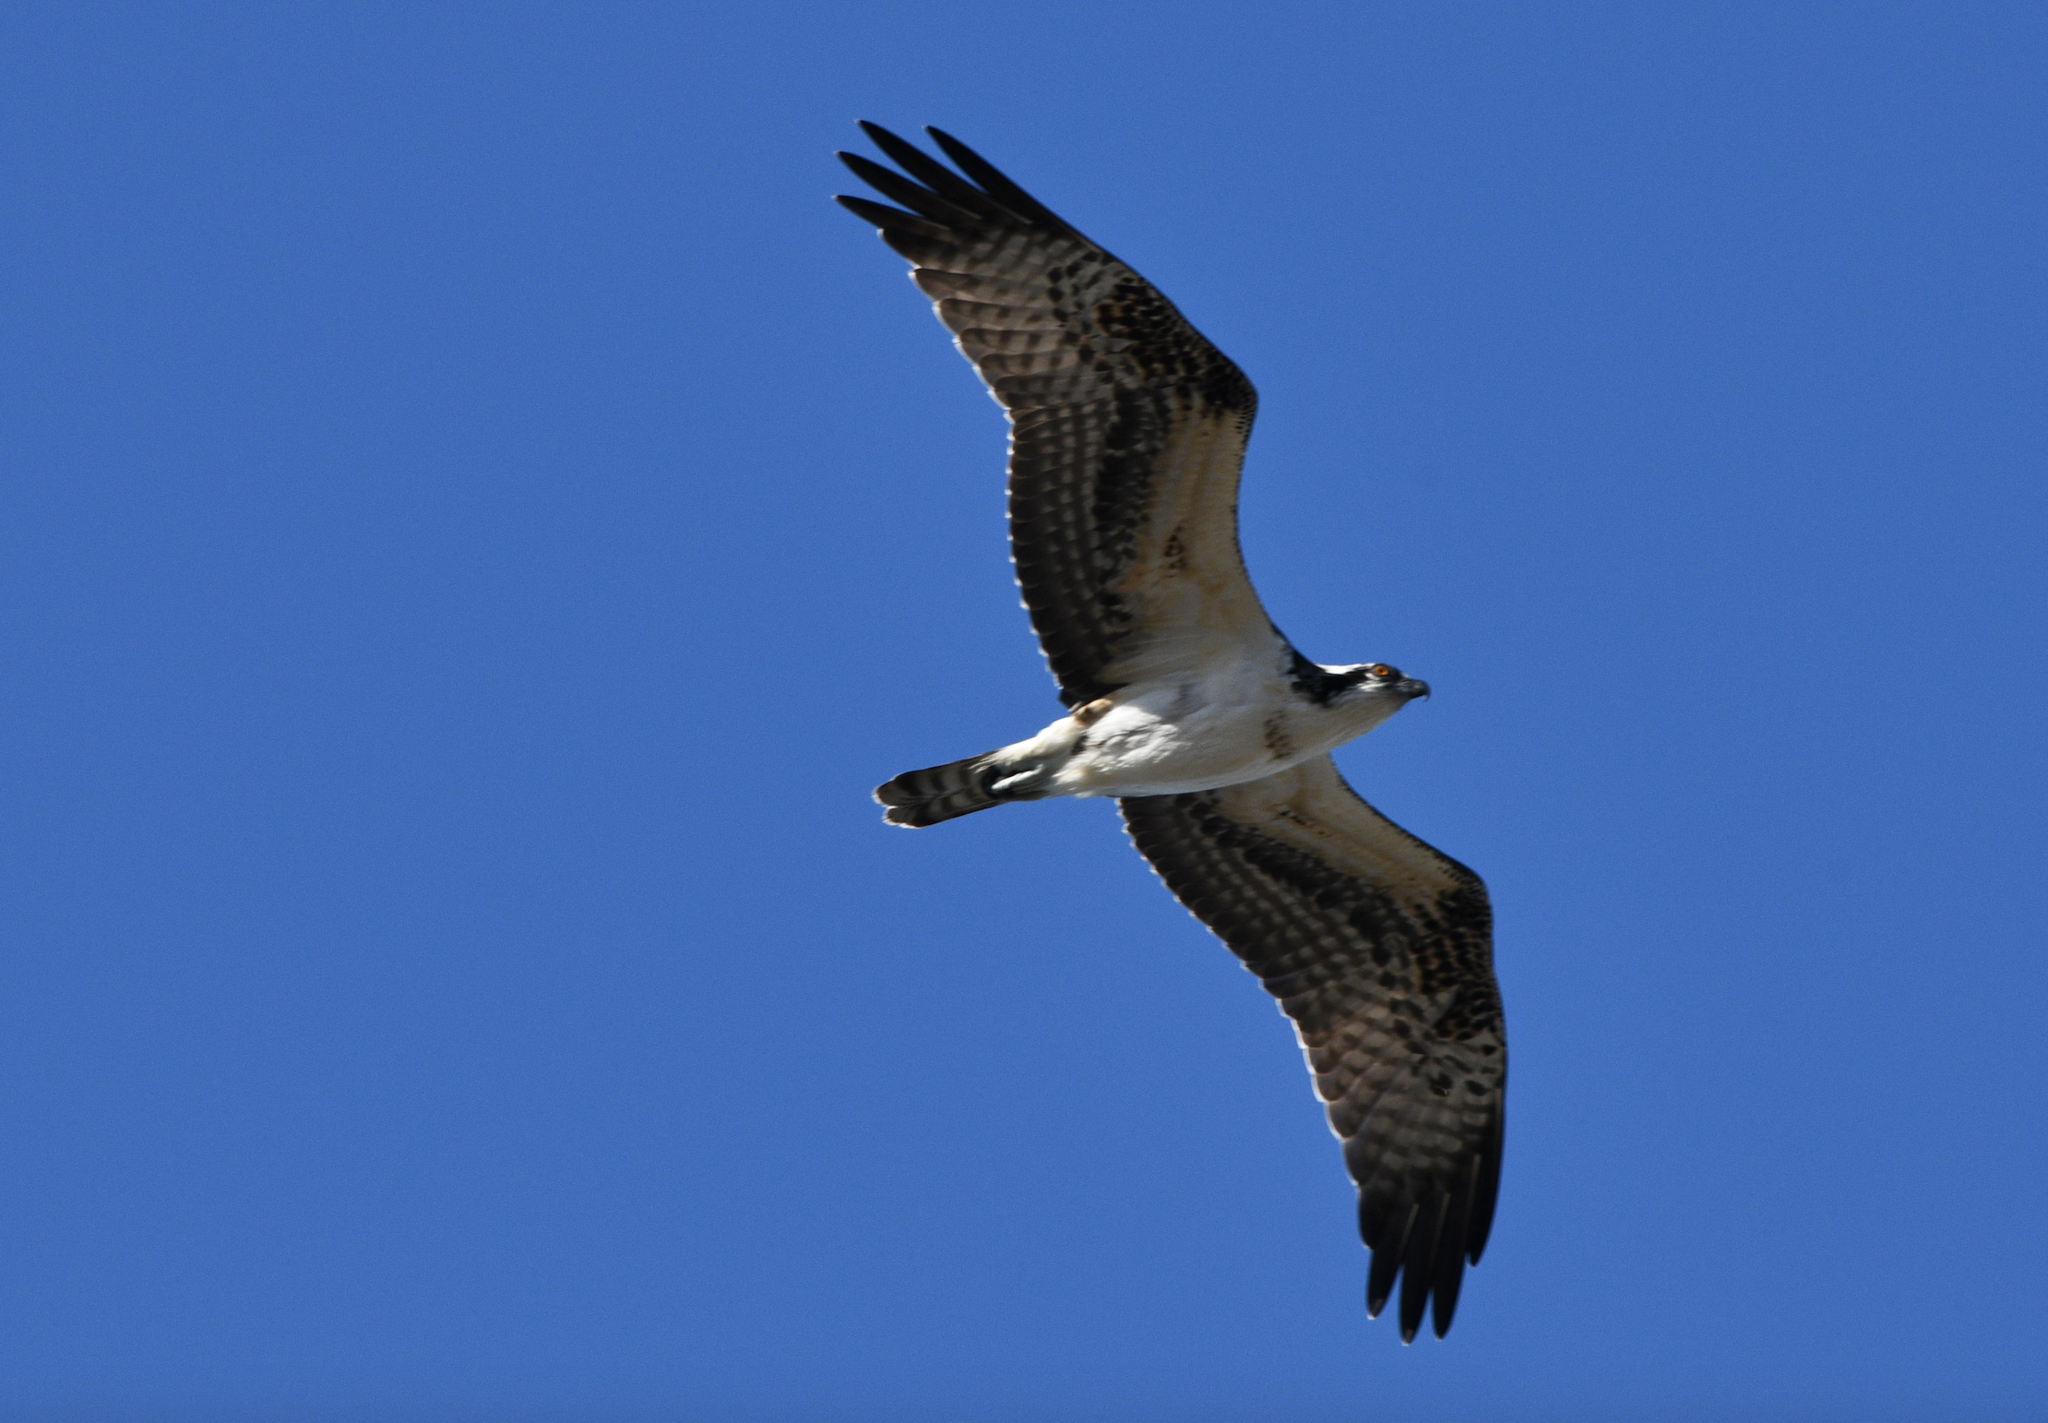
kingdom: Animalia
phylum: Chordata
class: Aves
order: Accipitriformes
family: Pandionidae
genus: Pandion
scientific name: Pandion haliaetus
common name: Osprey
